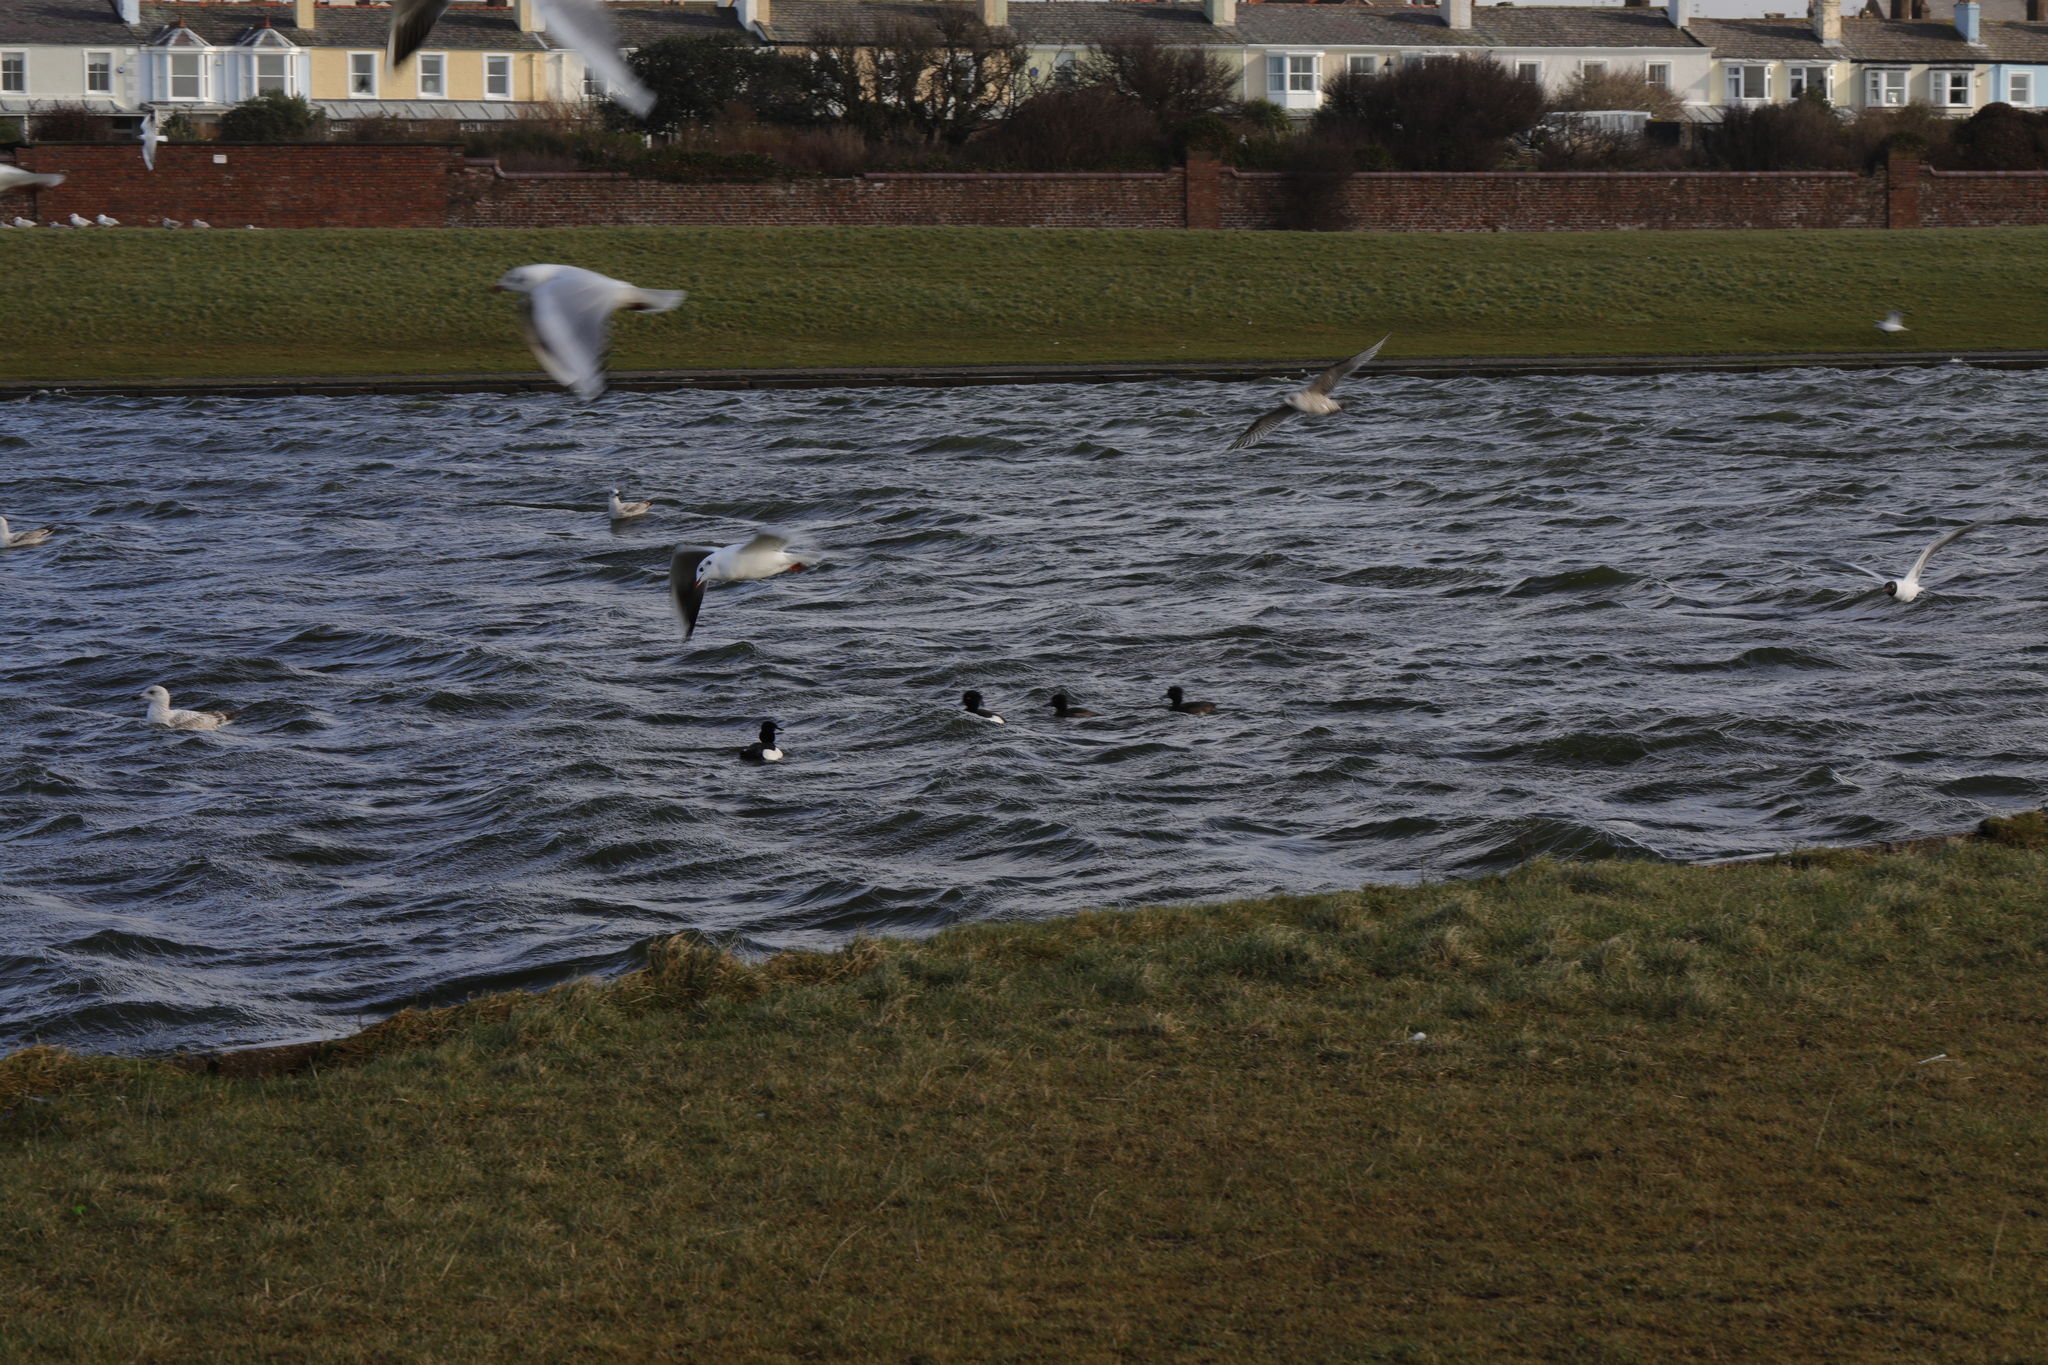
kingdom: Animalia
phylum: Chordata
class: Aves
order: Anseriformes
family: Anatidae
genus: Aythya
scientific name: Aythya fuligula
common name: Tufted duck
